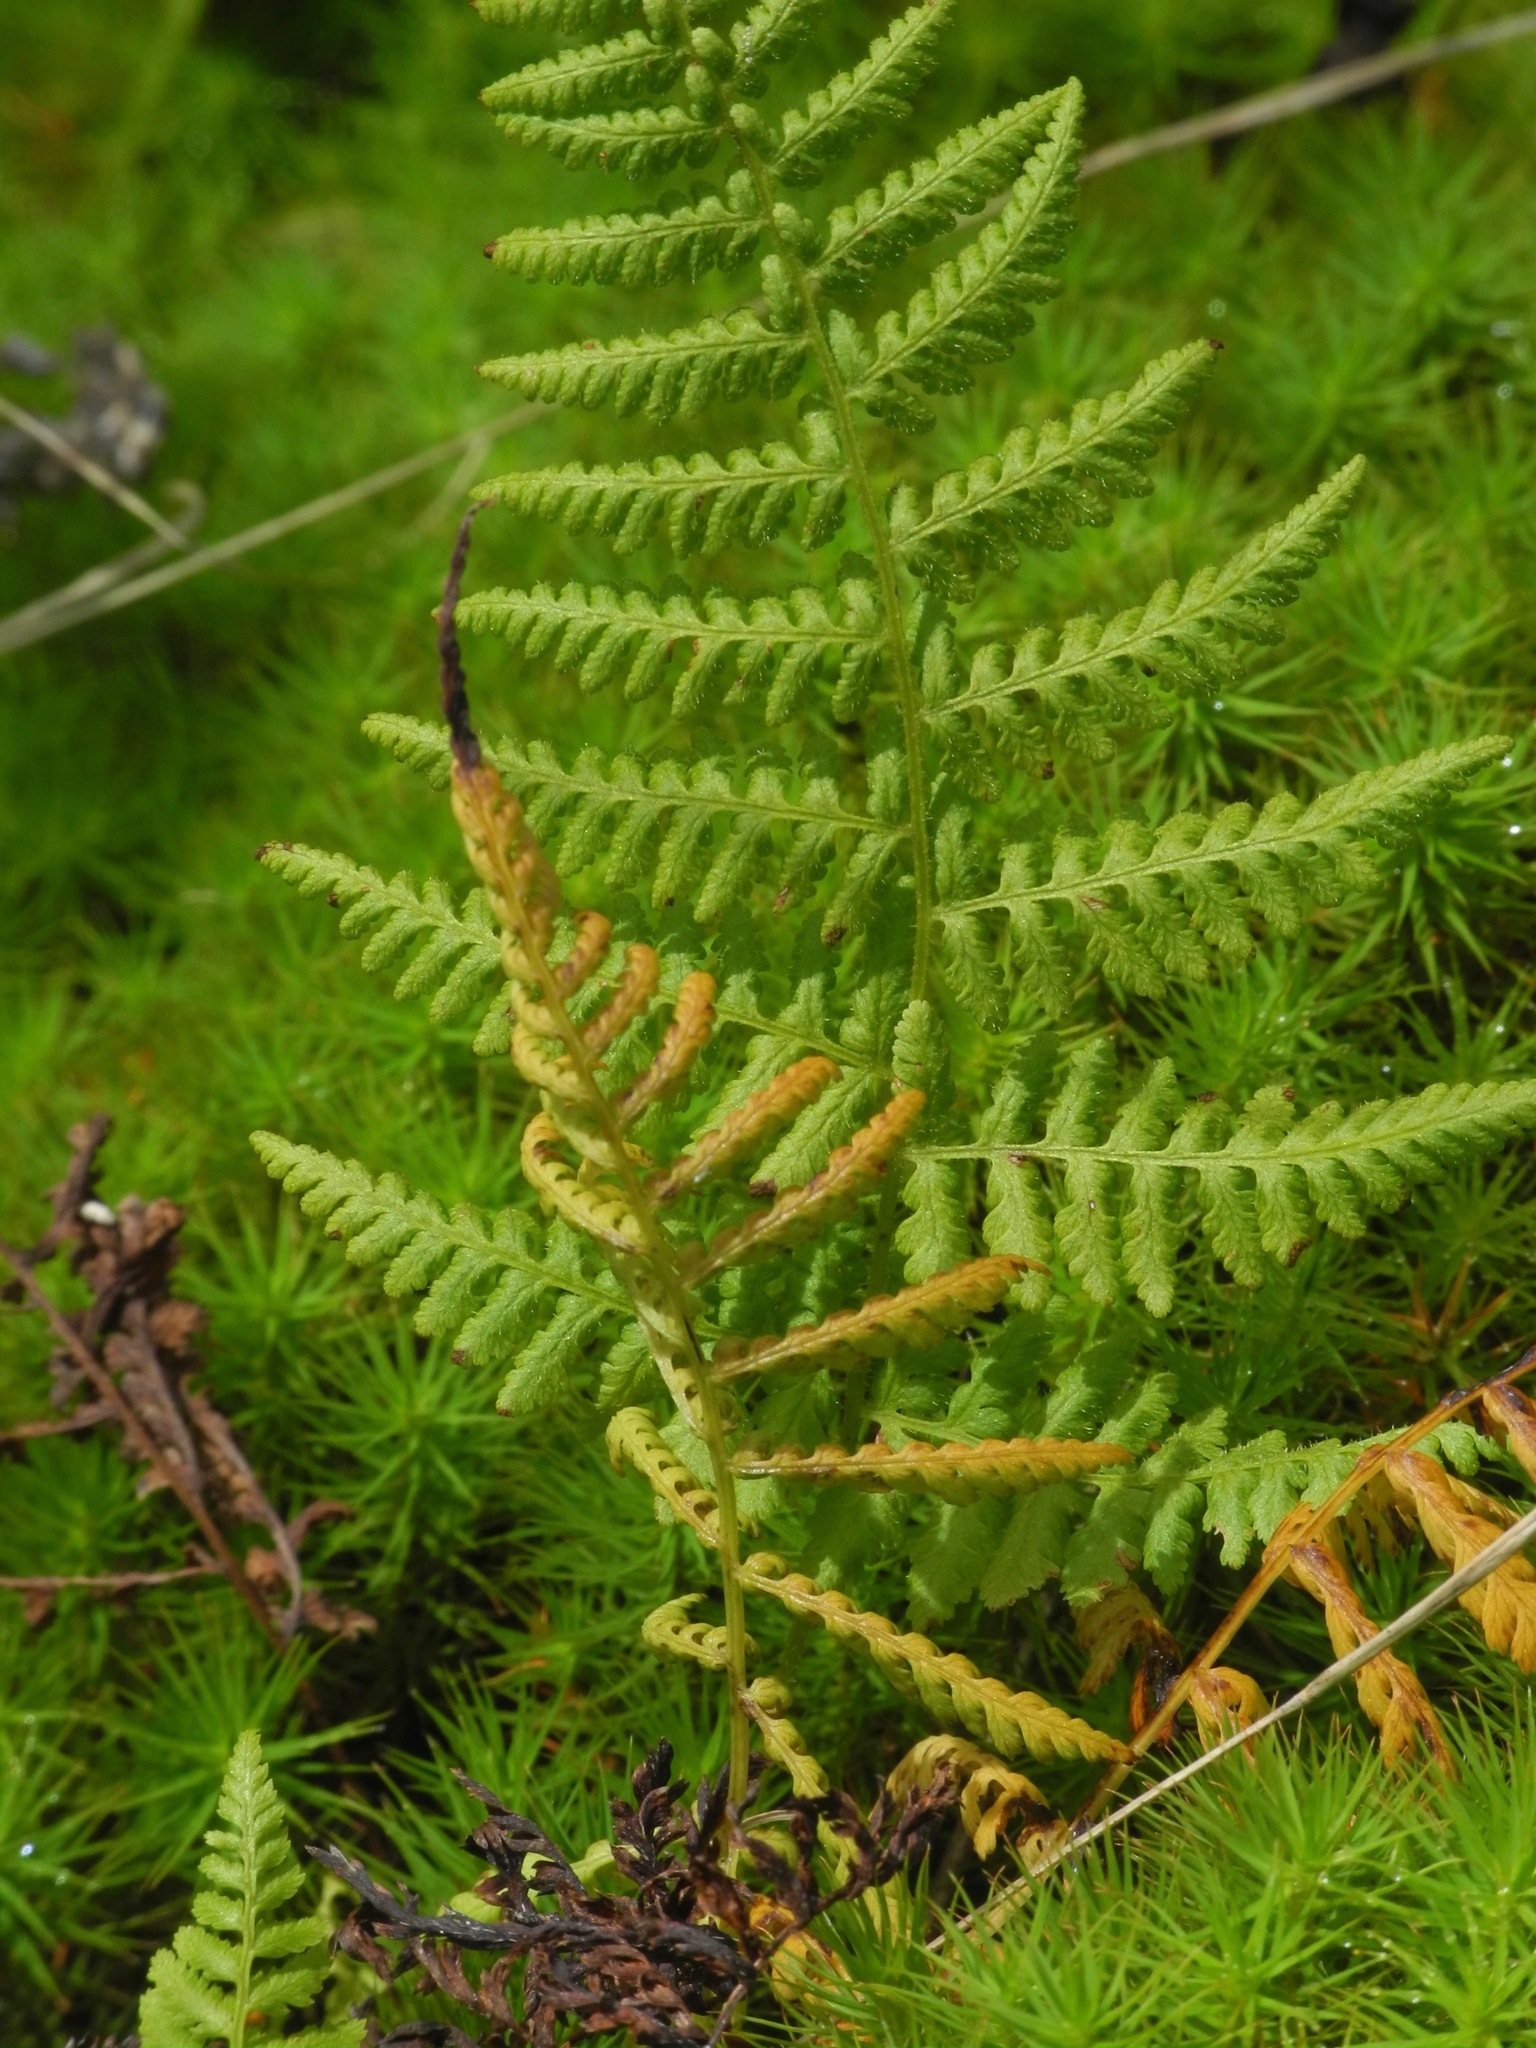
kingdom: Plantae
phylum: Tracheophyta
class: Polypodiopsida
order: Polypodiales
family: Woodsiaceae
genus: Physematium
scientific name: Physematium obtusum
